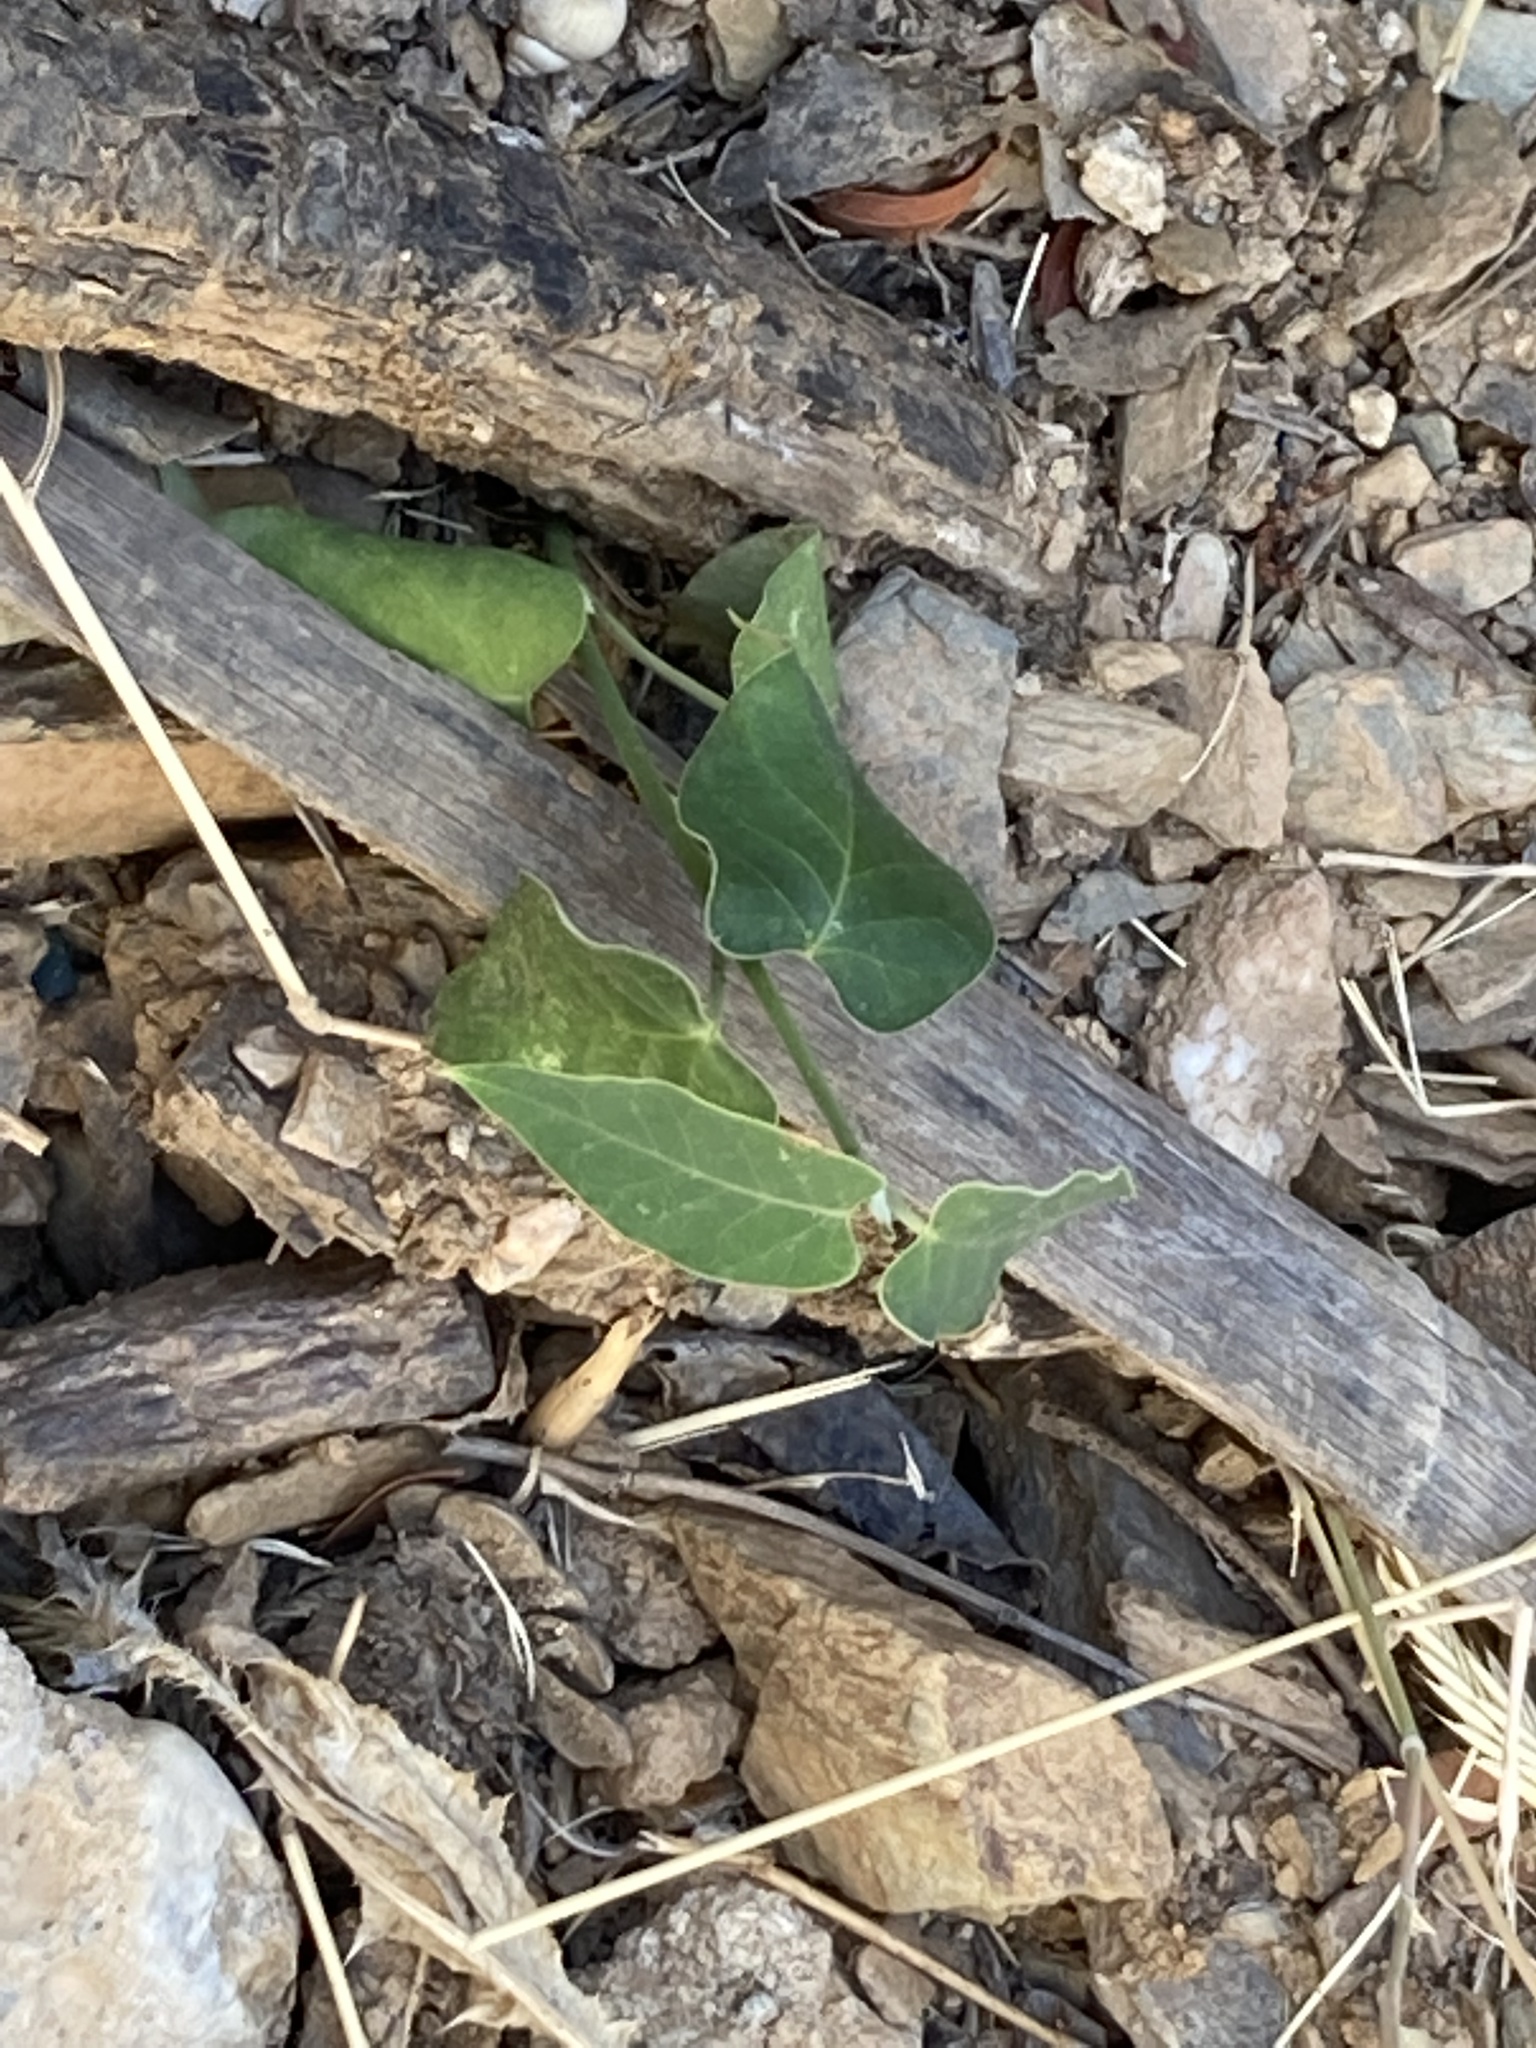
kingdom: Plantae
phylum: Tracheophyta
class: Magnoliopsida
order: Gentianales
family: Apocynaceae
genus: Araujia
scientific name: Araujia sericifera
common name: White bladderflower
